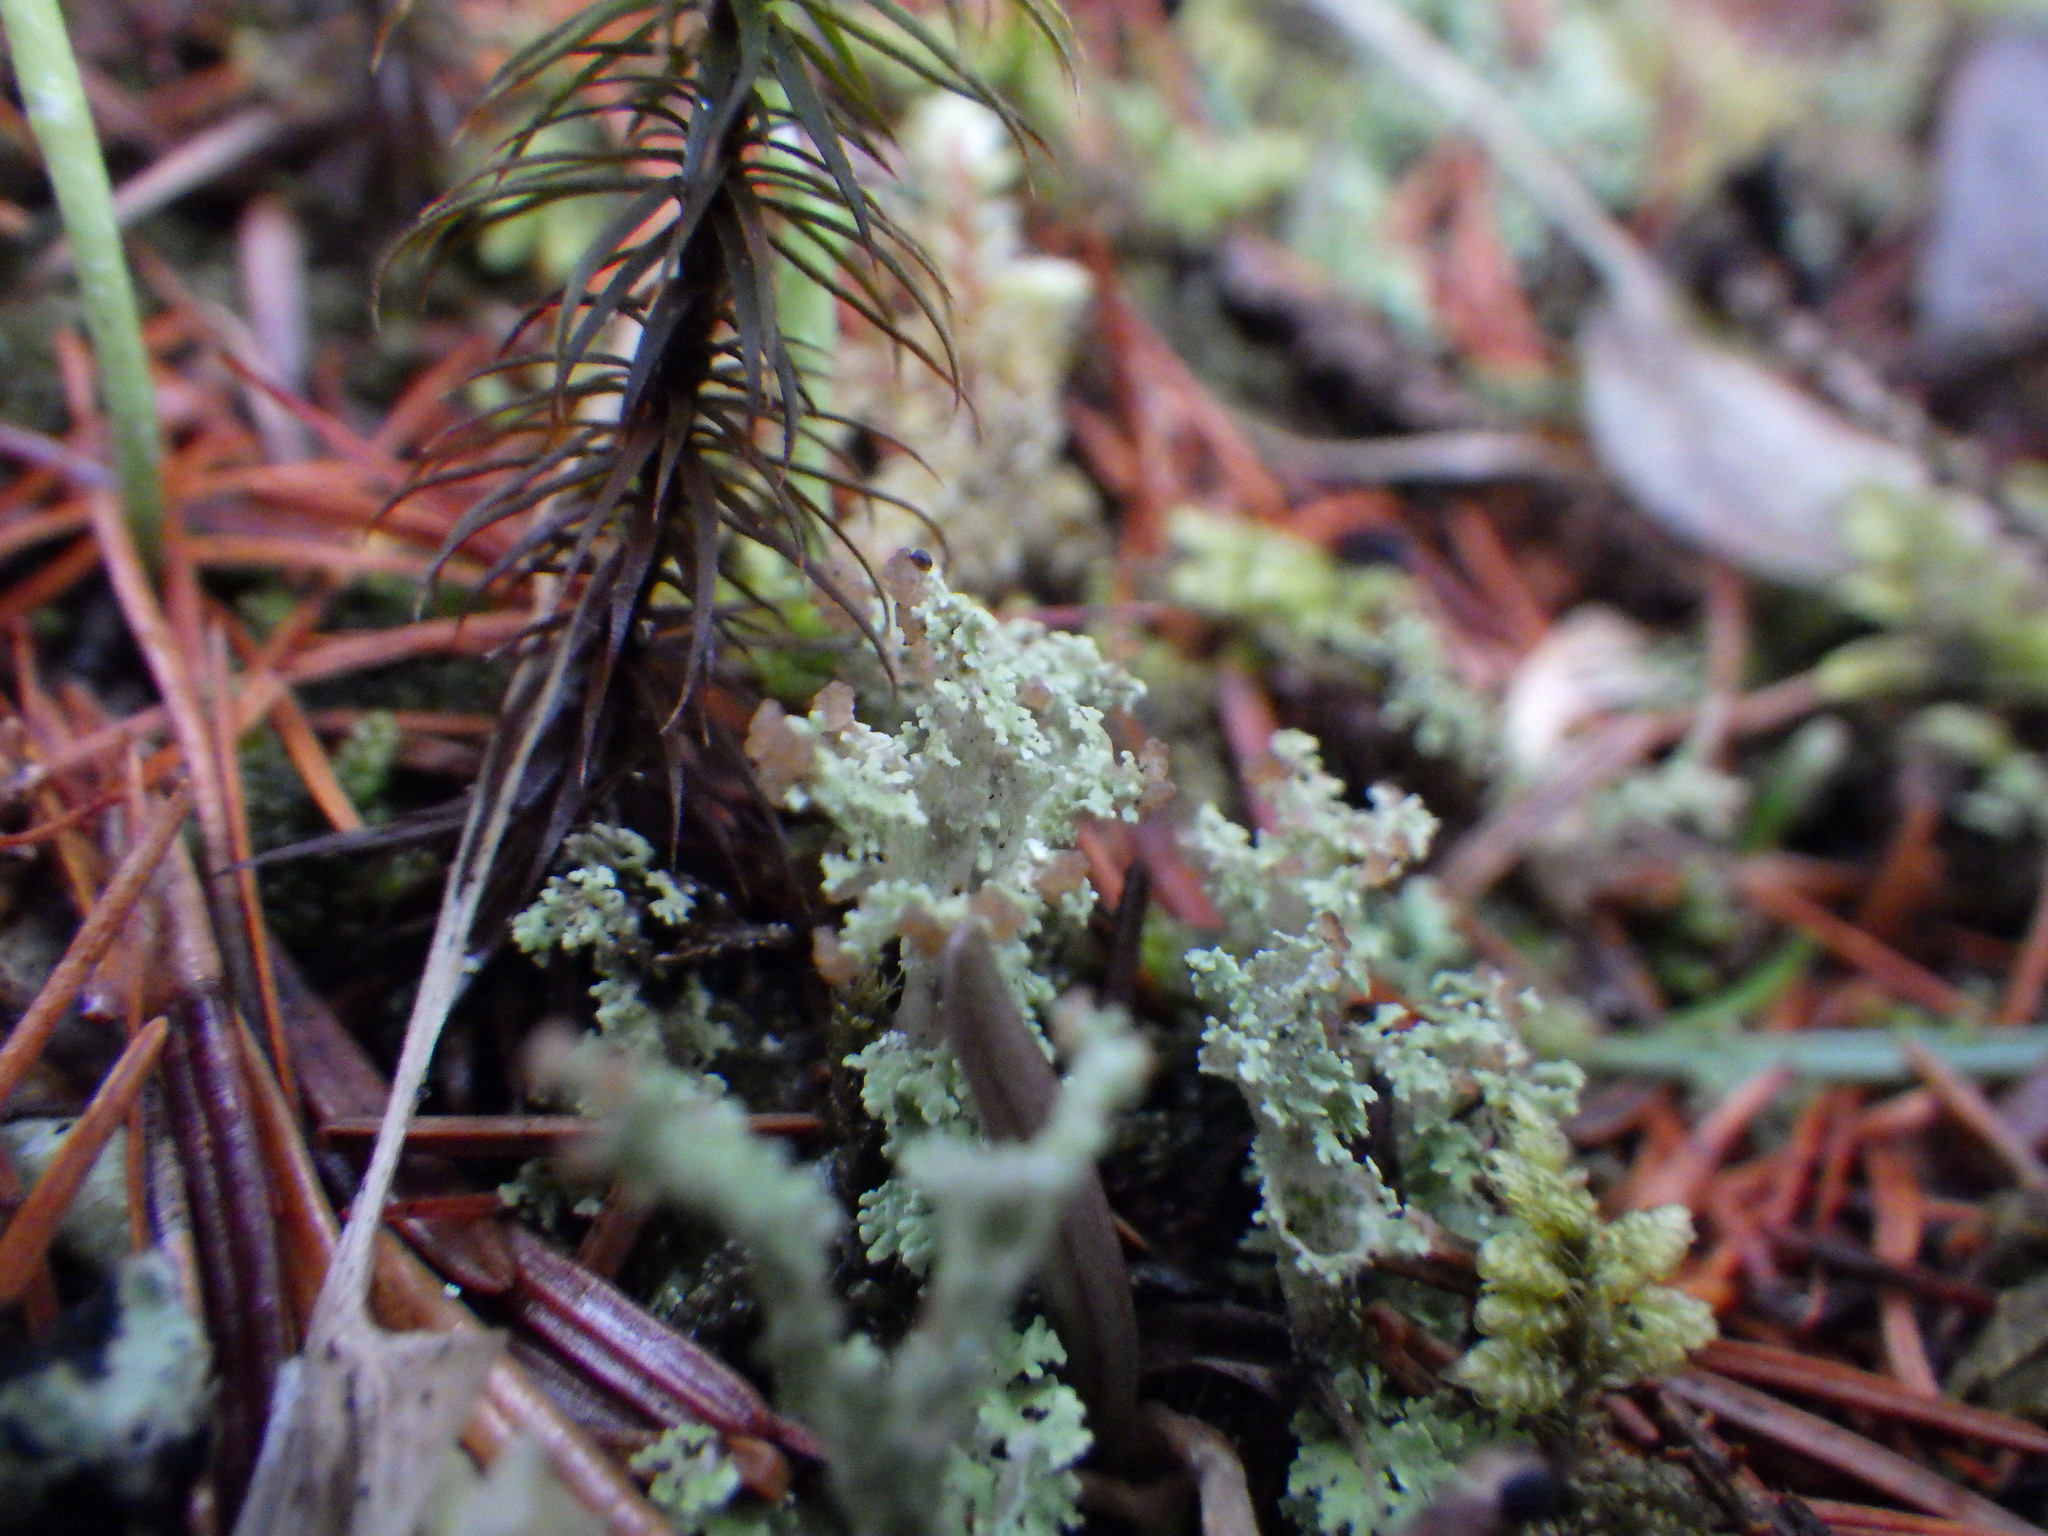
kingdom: Fungi
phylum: Ascomycota
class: Lecanoromycetes
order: Lecanorales
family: Cladoniaceae
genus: Cladonia
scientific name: Cladonia squamosa
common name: Dragon horn
